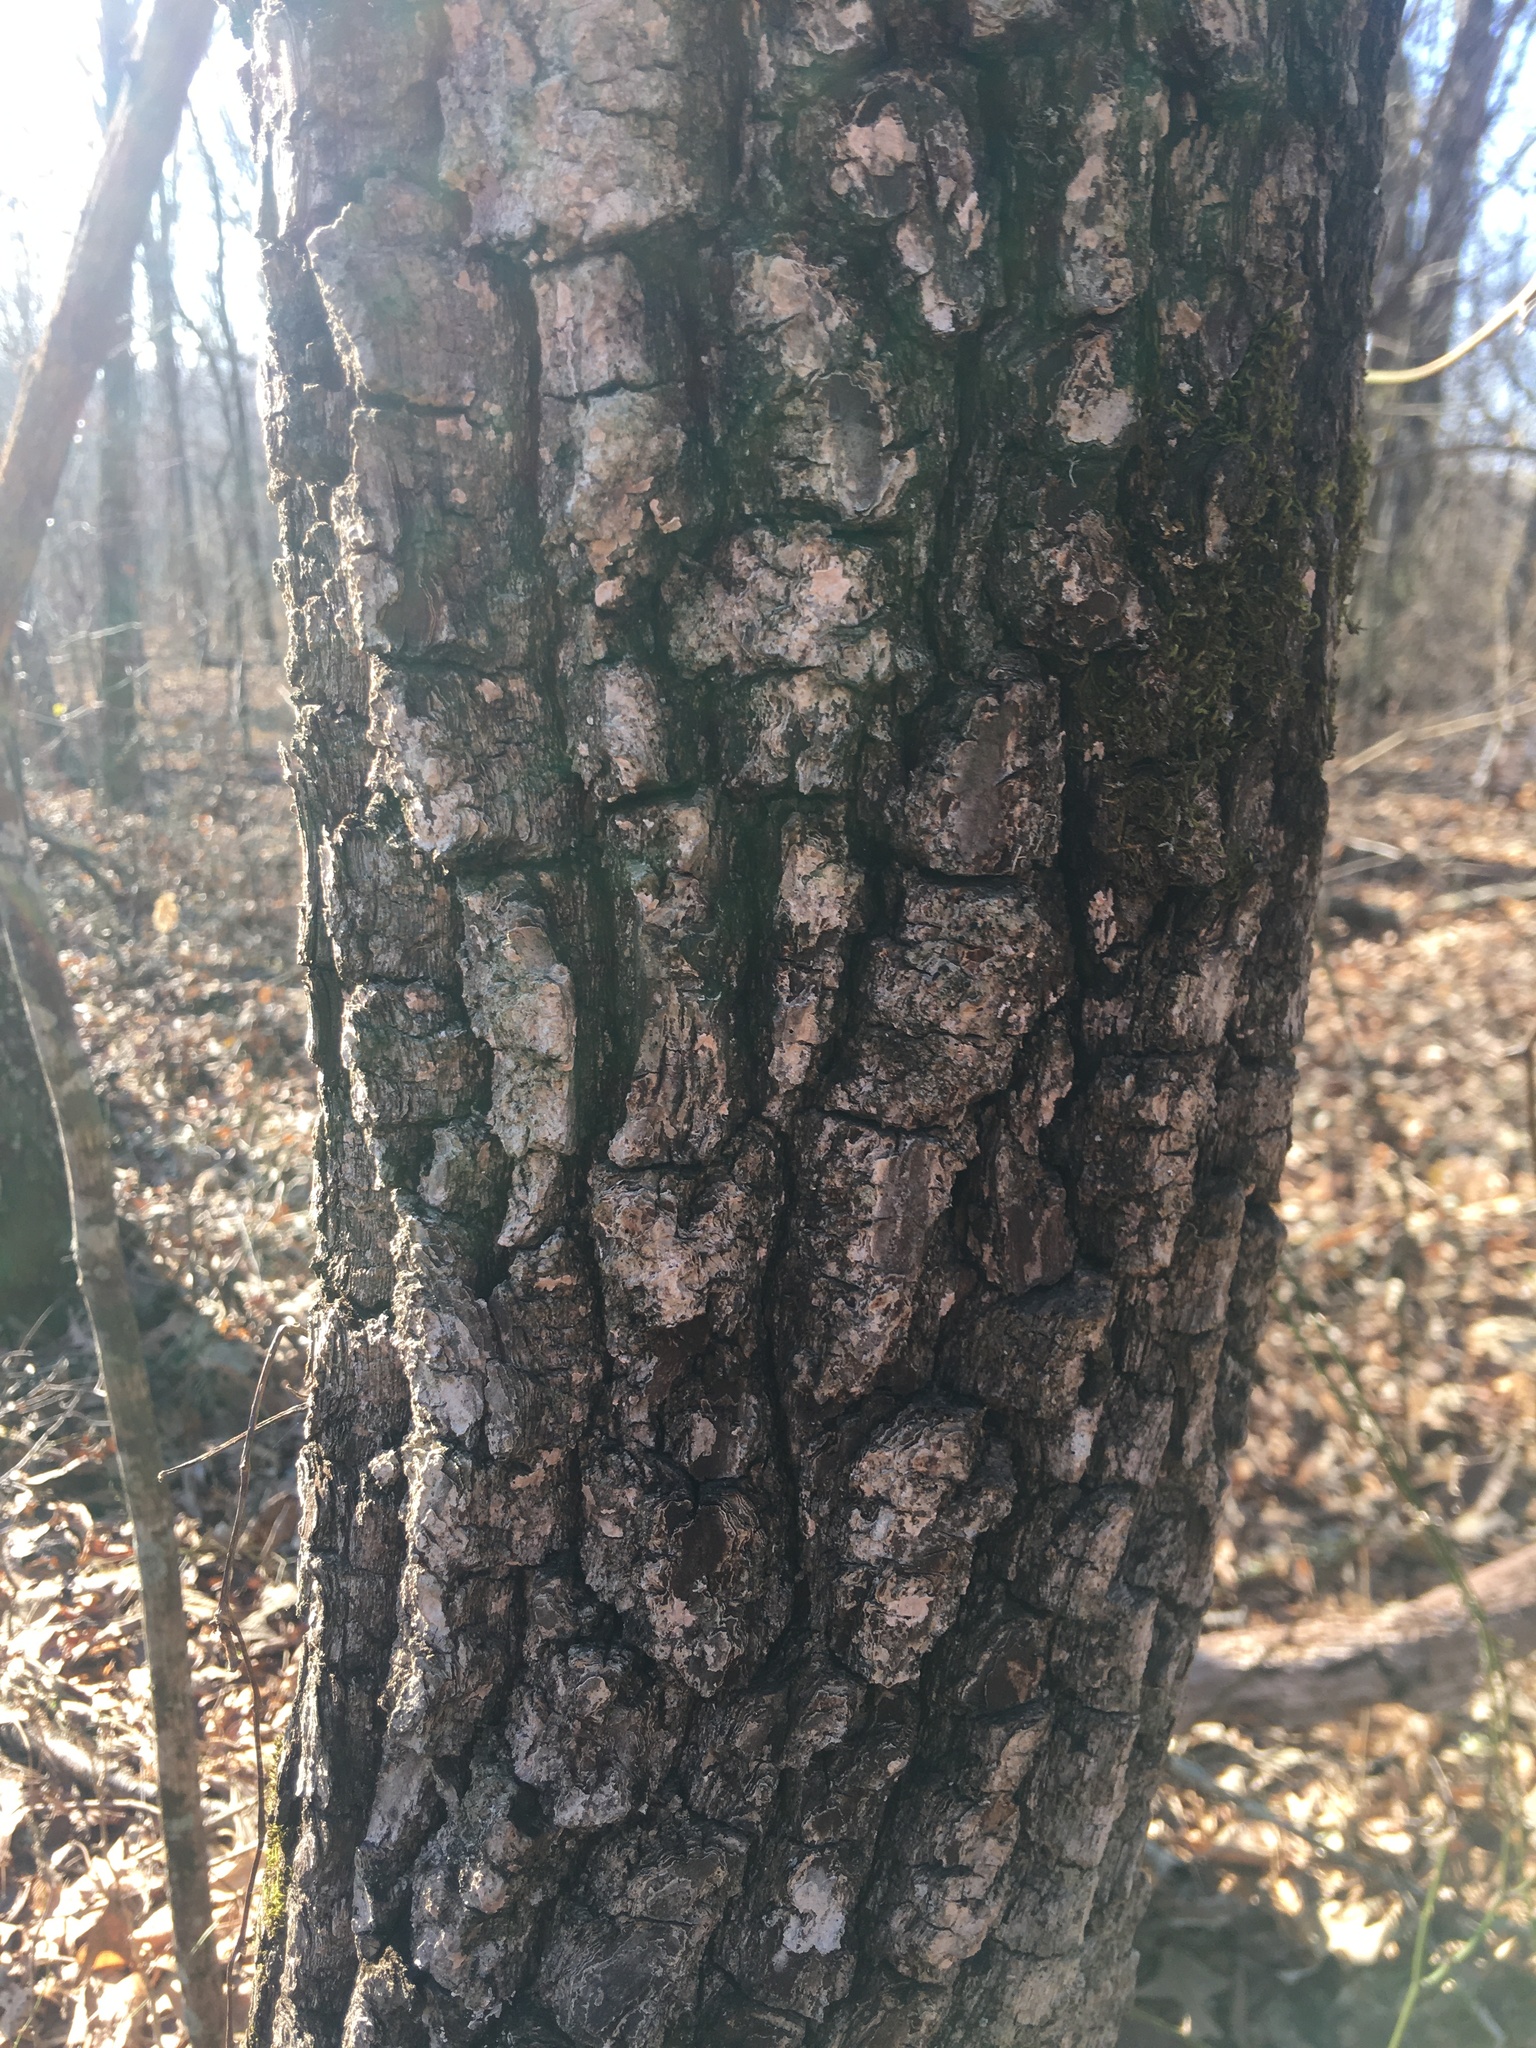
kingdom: Plantae
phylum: Tracheophyta
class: Magnoliopsida
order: Ericales
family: Ebenaceae
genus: Diospyros
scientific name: Diospyros virginiana
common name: Persimmon
